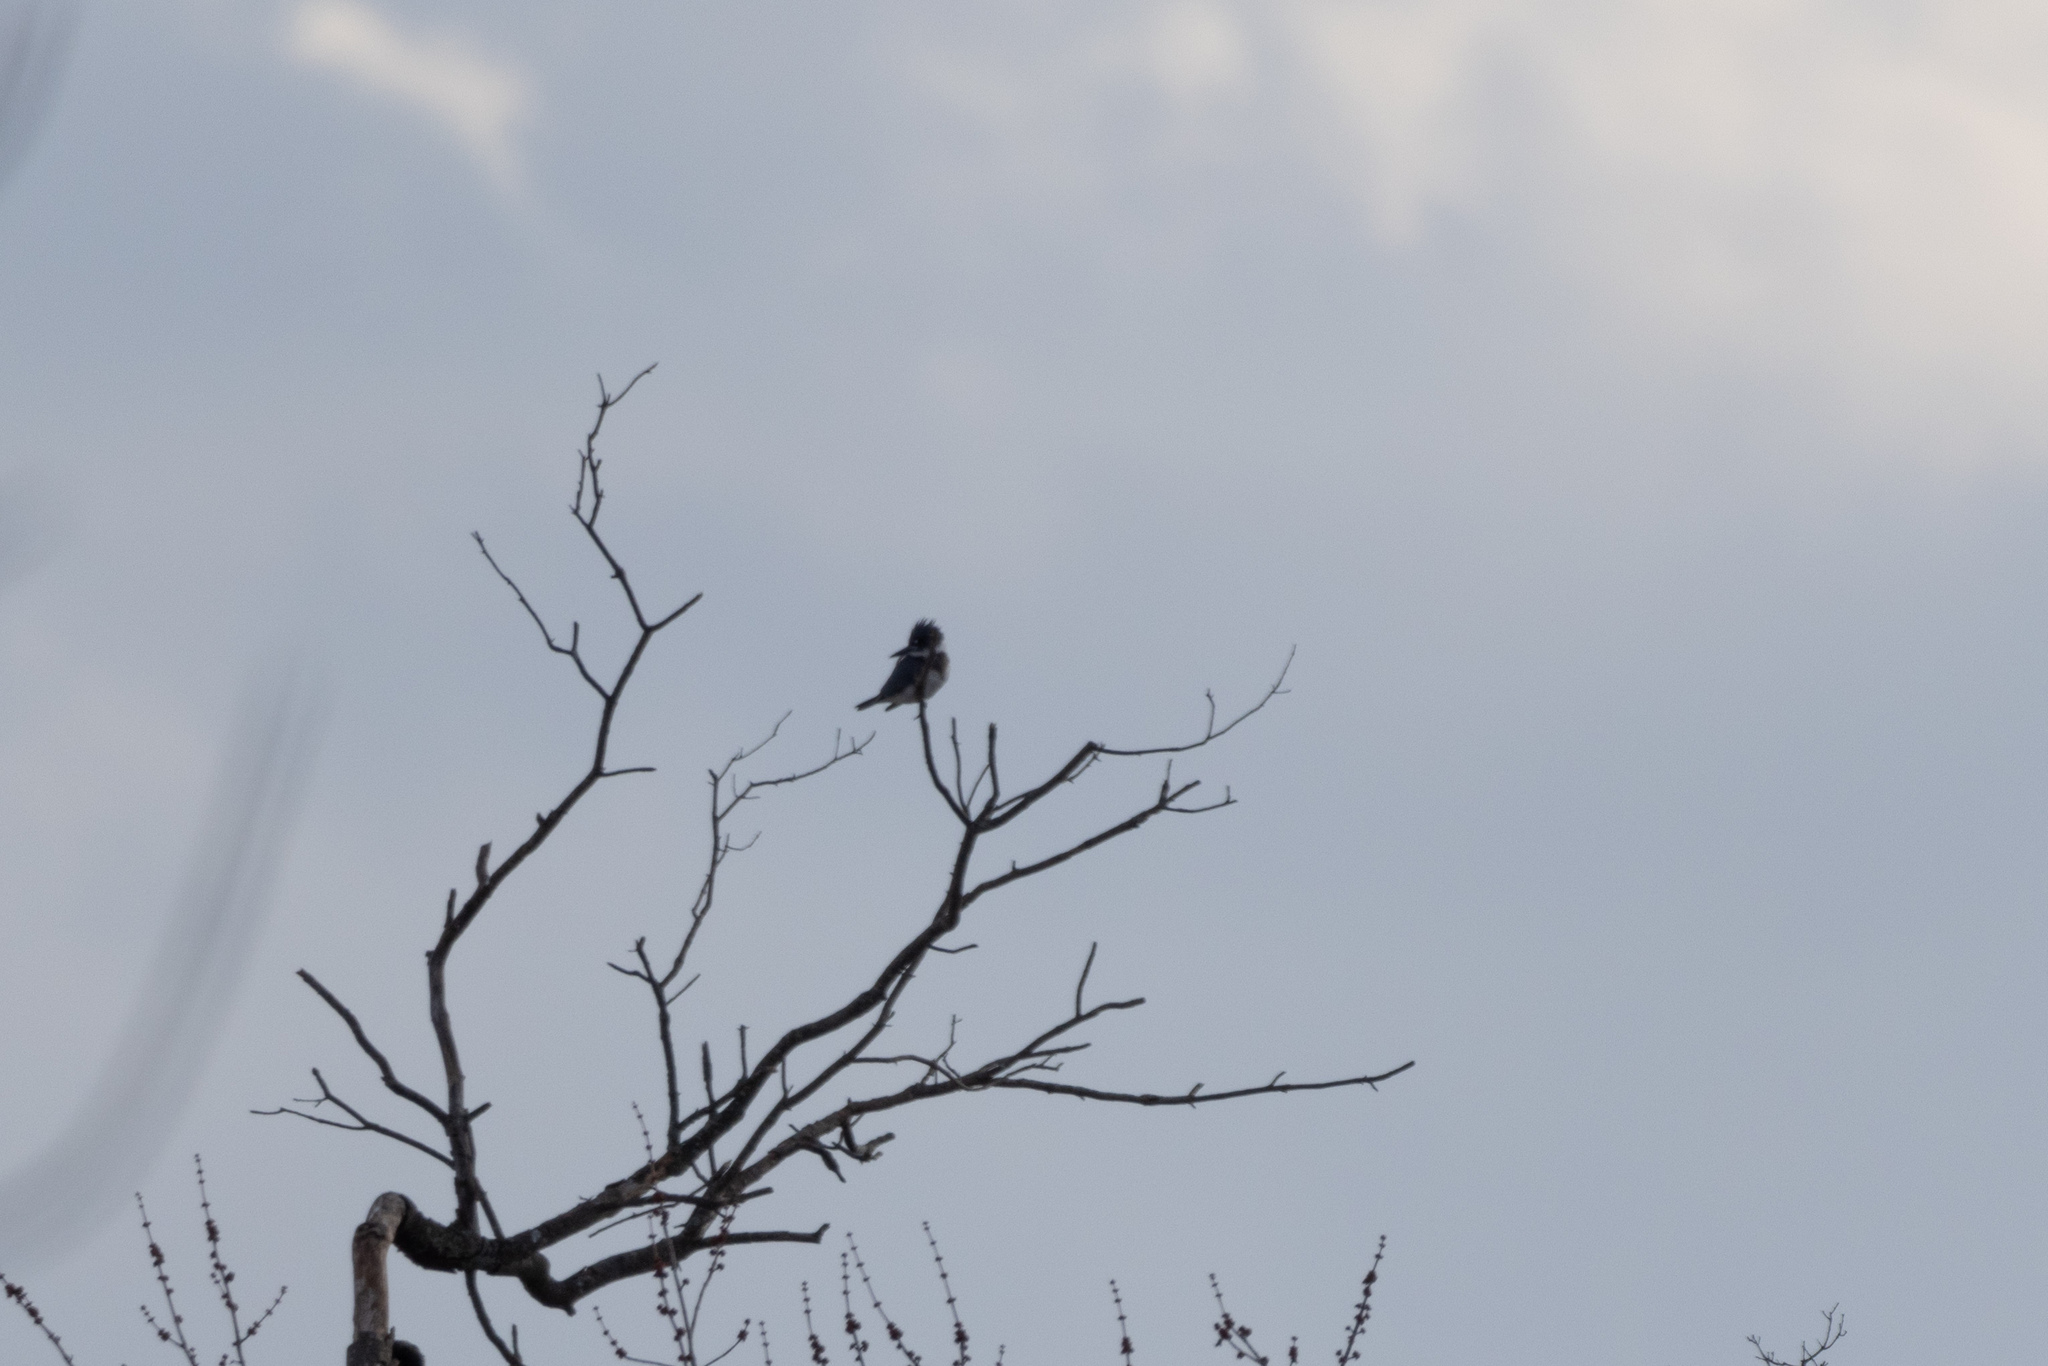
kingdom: Animalia
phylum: Chordata
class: Aves
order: Coraciiformes
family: Alcedinidae
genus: Megaceryle
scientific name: Megaceryle alcyon
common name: Belted kingfisher
